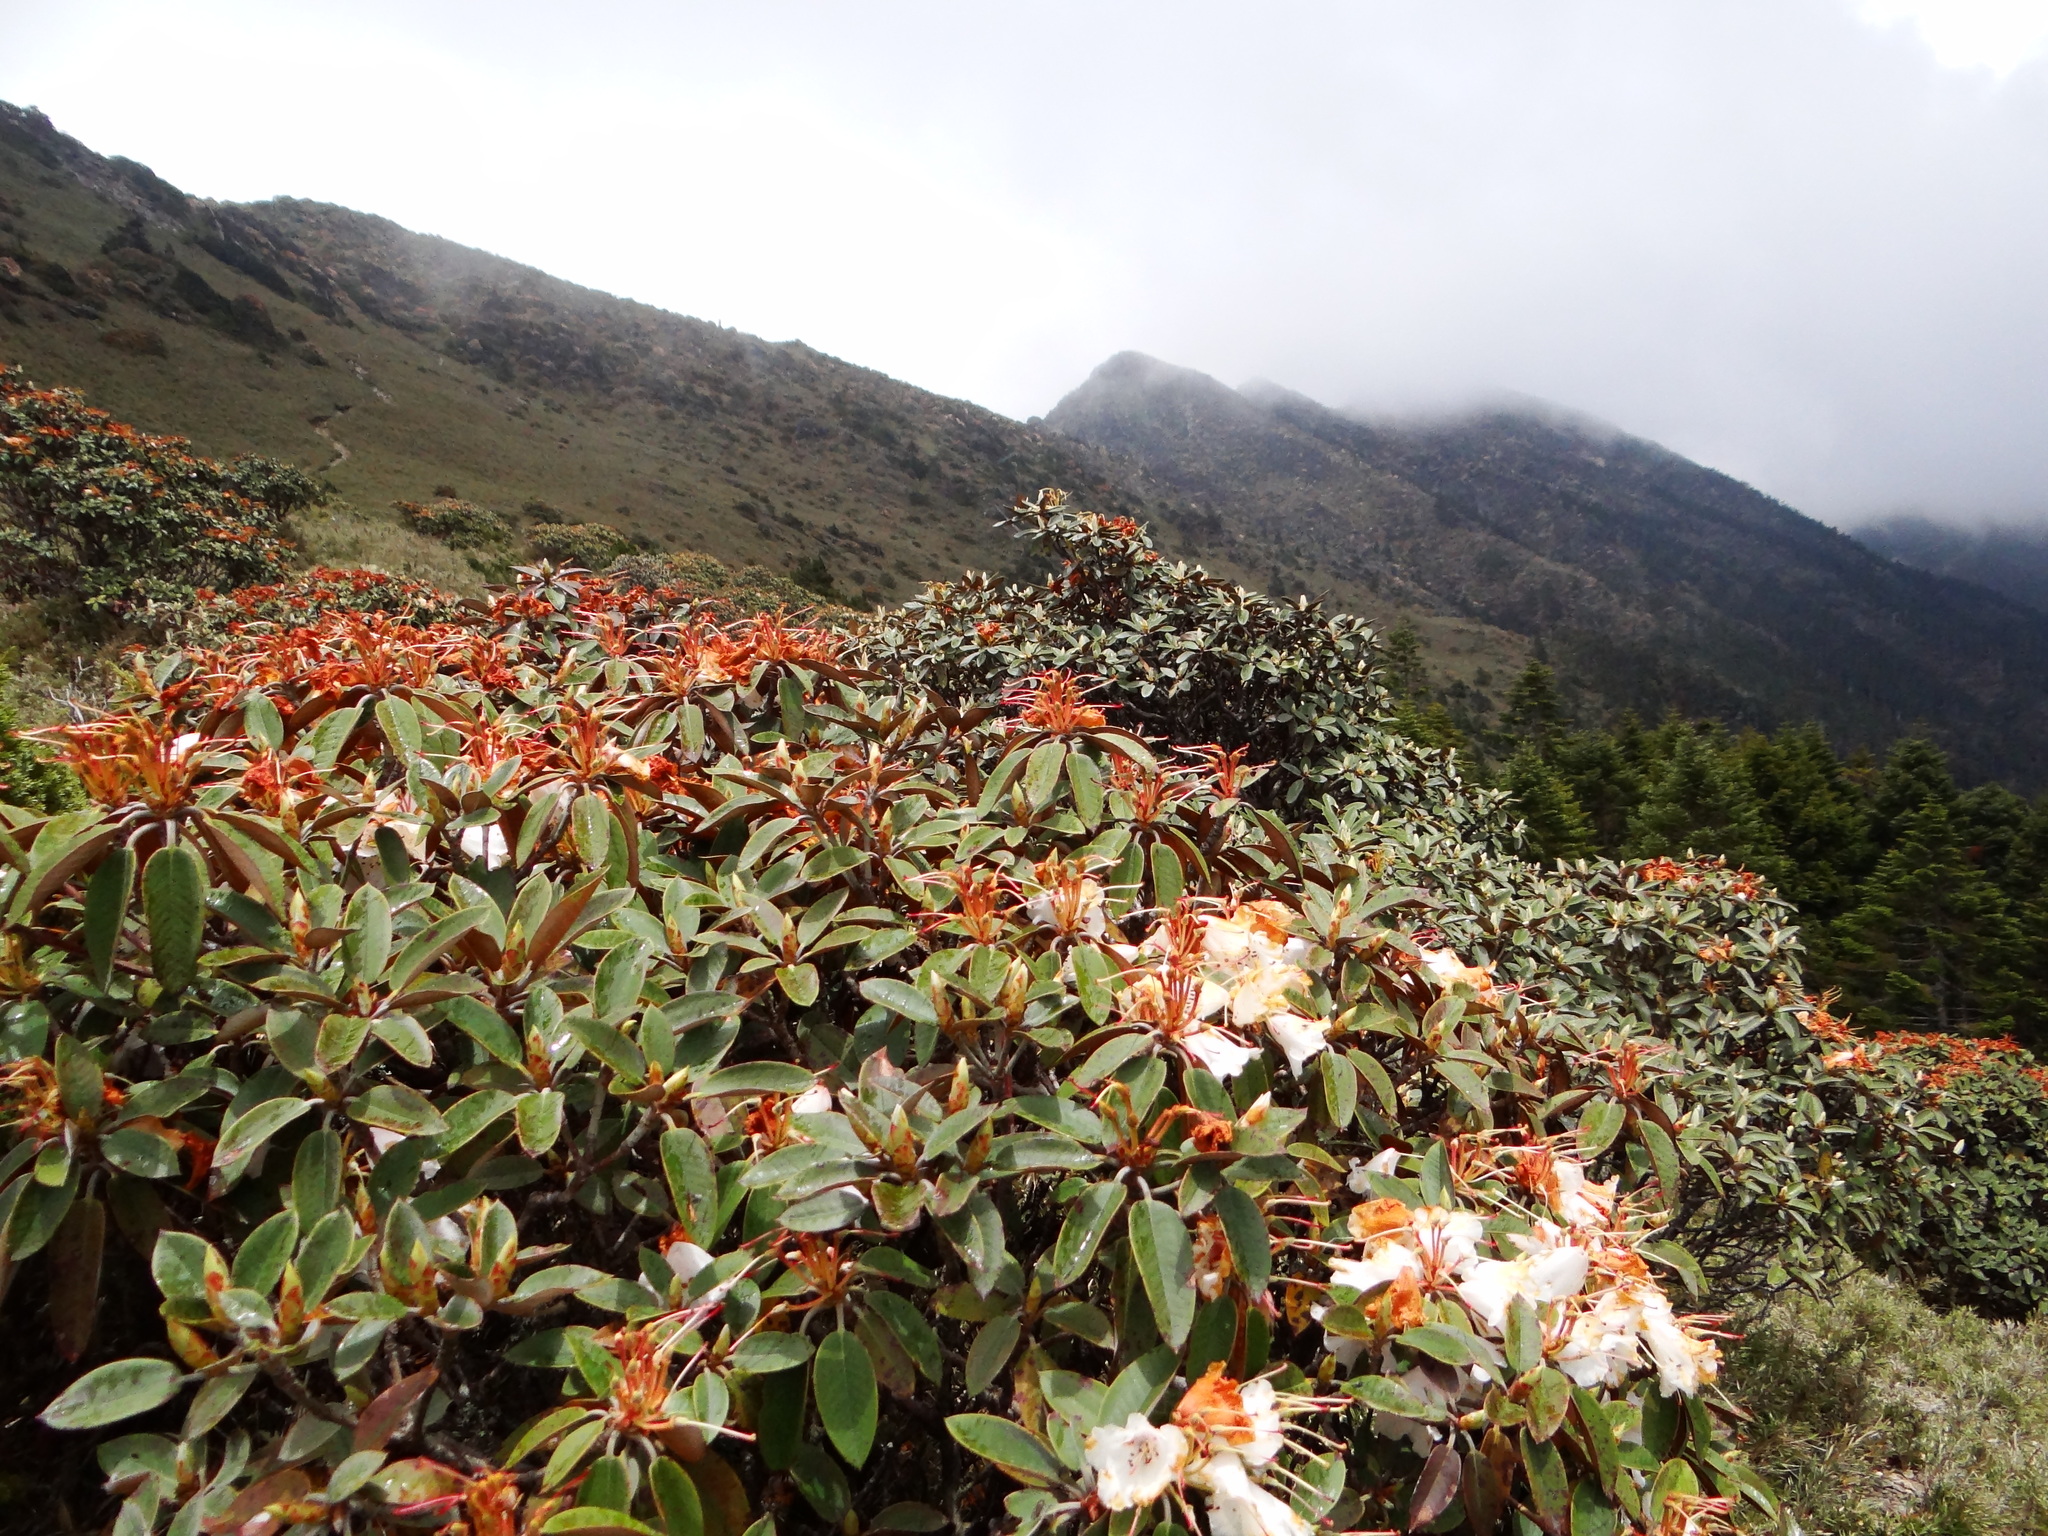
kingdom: Plantae
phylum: Tracheophyta
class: Magnoliopsida
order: Ericales
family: Ericaceae
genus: Rhododendron
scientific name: Rhododendron hyperythrum
